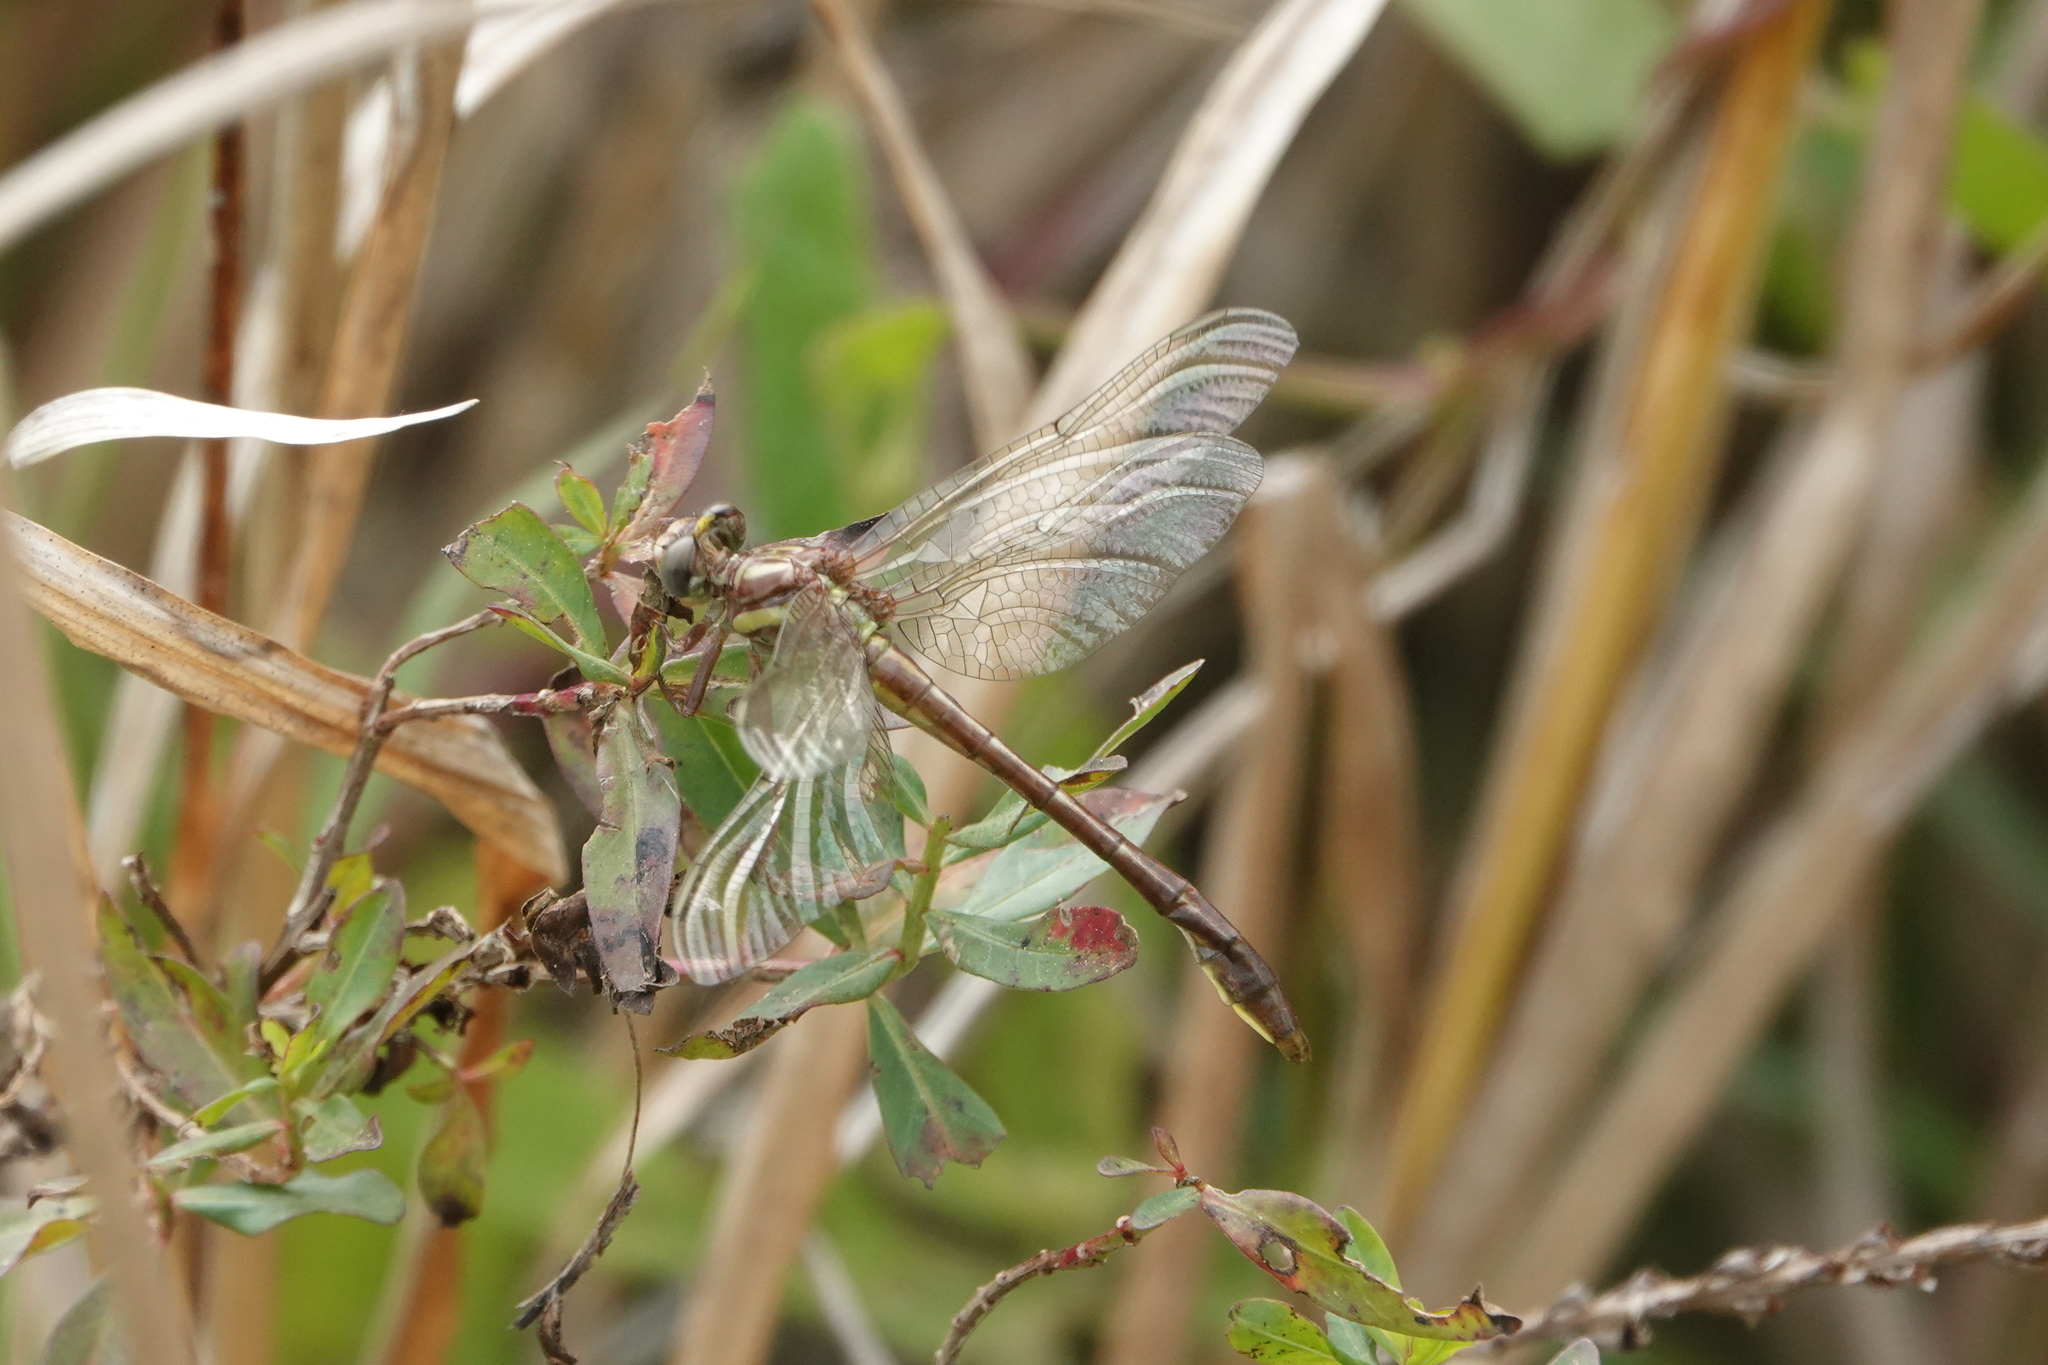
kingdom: Animalia
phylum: Arthropoda
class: Insecta
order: Odonata
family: Gomphidae
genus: Phanogomphus
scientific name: Phanogomphus minutus
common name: Cypress clubtail
